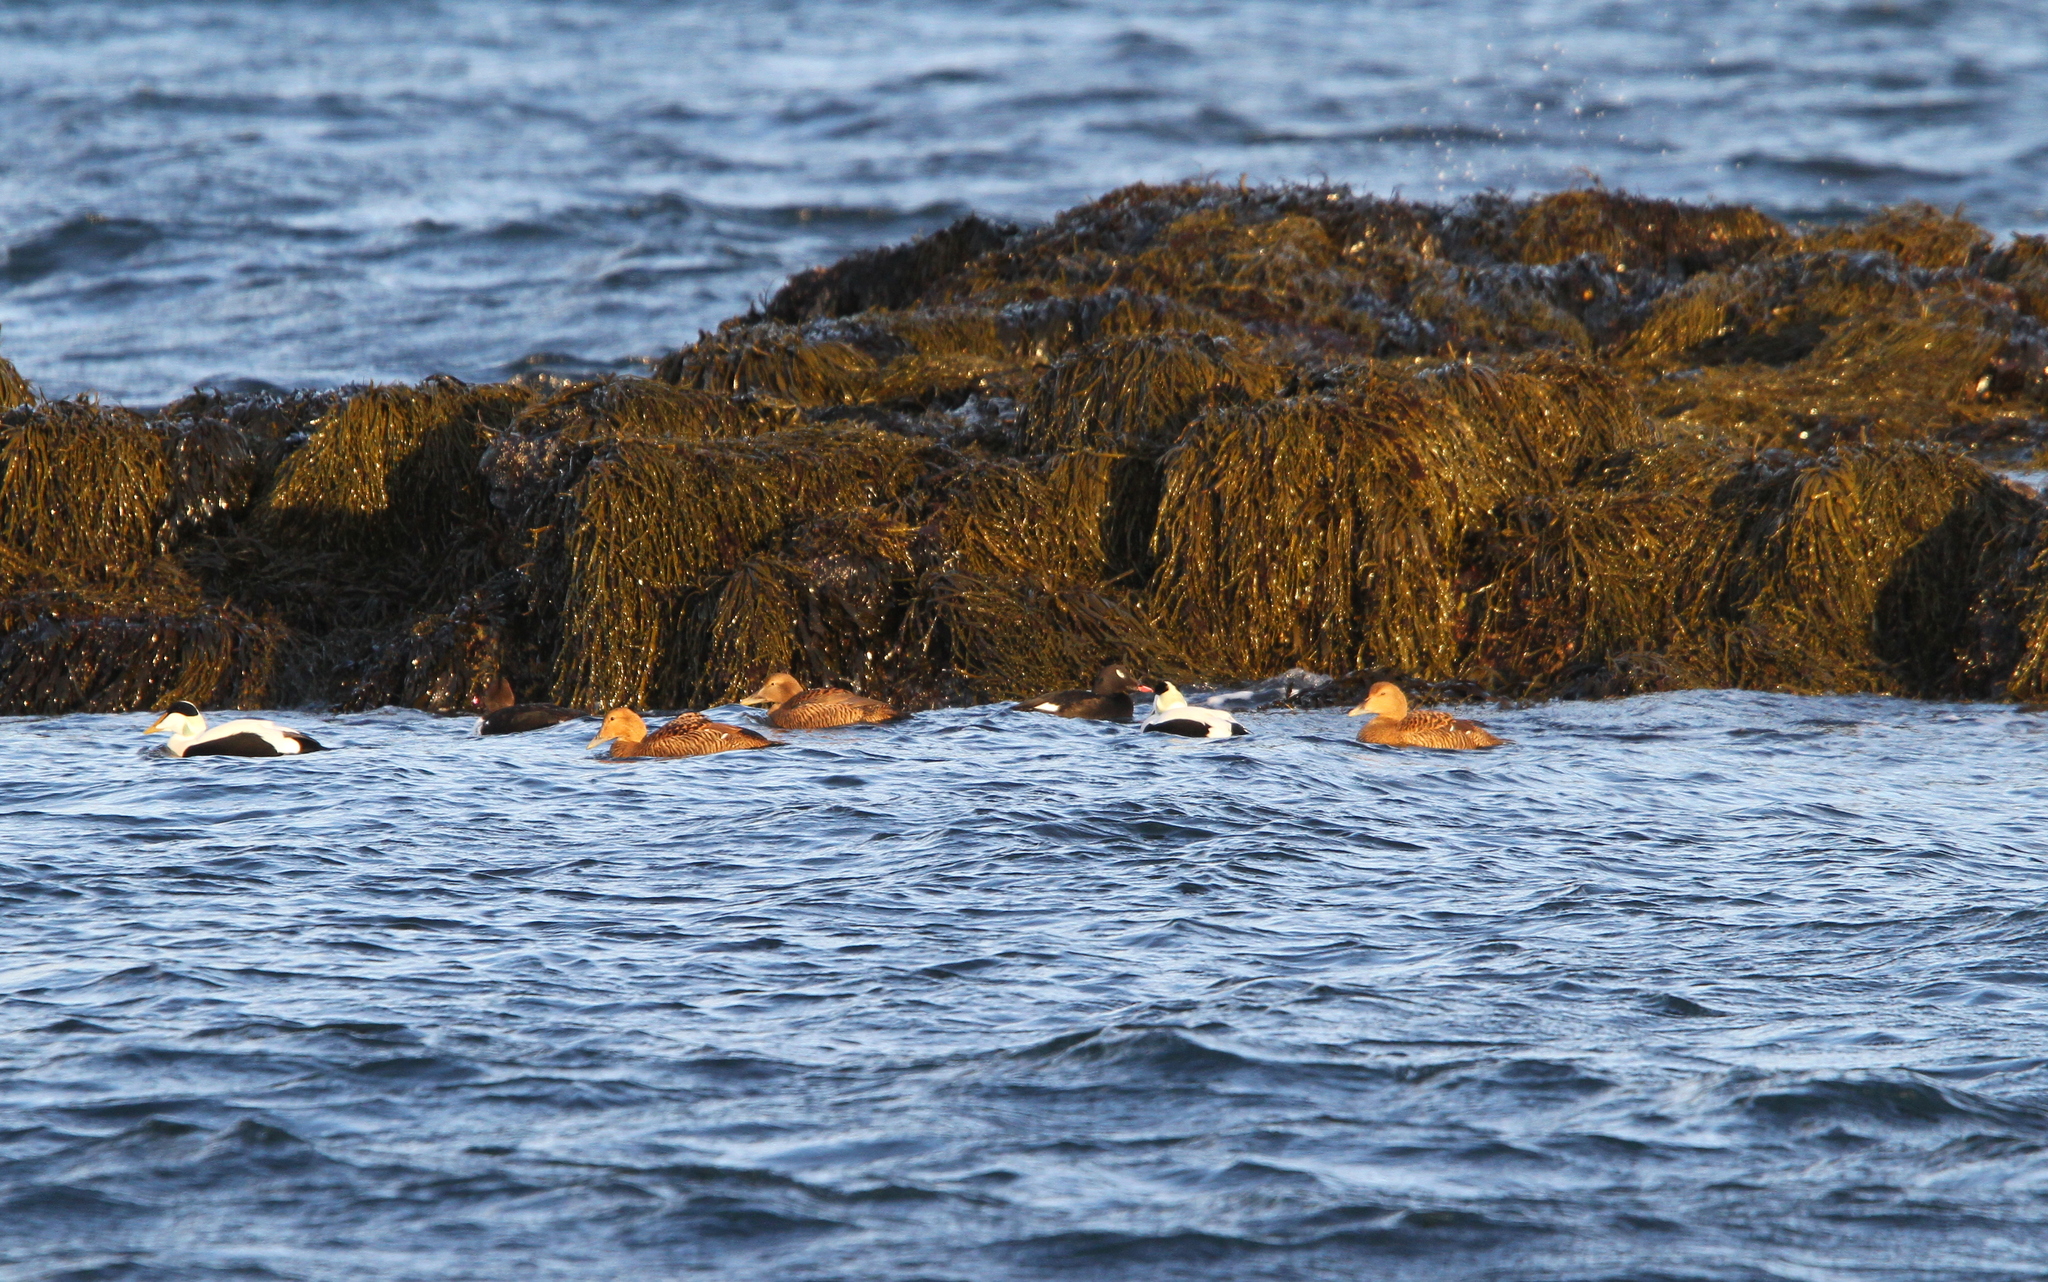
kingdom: Animalia
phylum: Chordata
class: Aves
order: Anseriformes
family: Anatidae
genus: Somateria
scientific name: Somateria mollissima
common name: Common eider
